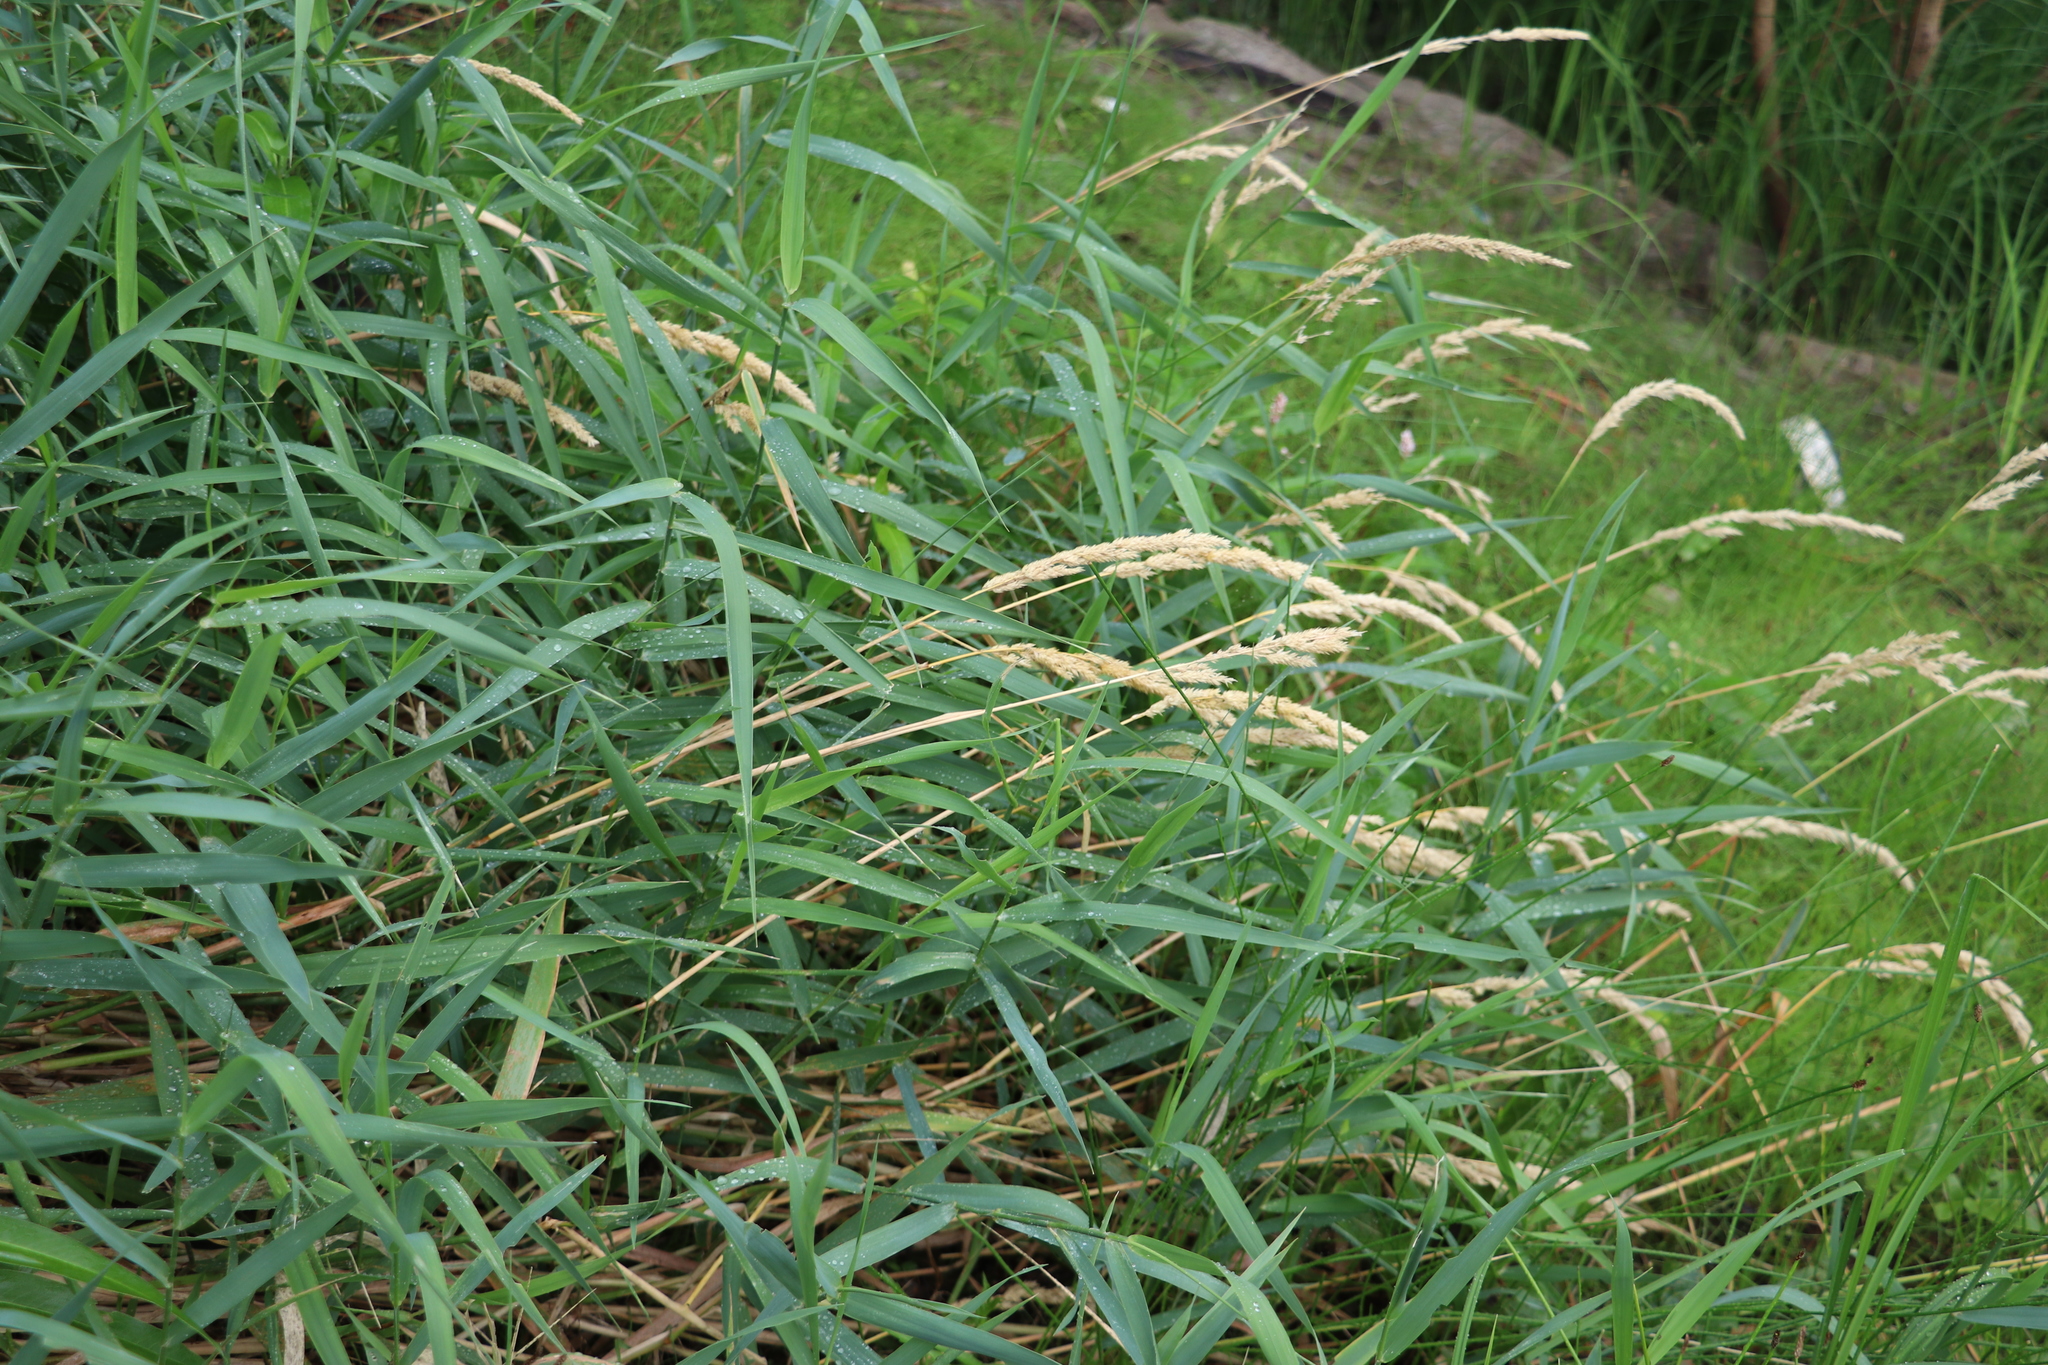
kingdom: Plantae
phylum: Tracheophyta
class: Liliopsida
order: Poales
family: Poaceae
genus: Phalaris
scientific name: Phalaris arundinacea
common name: Reed canary-grass
